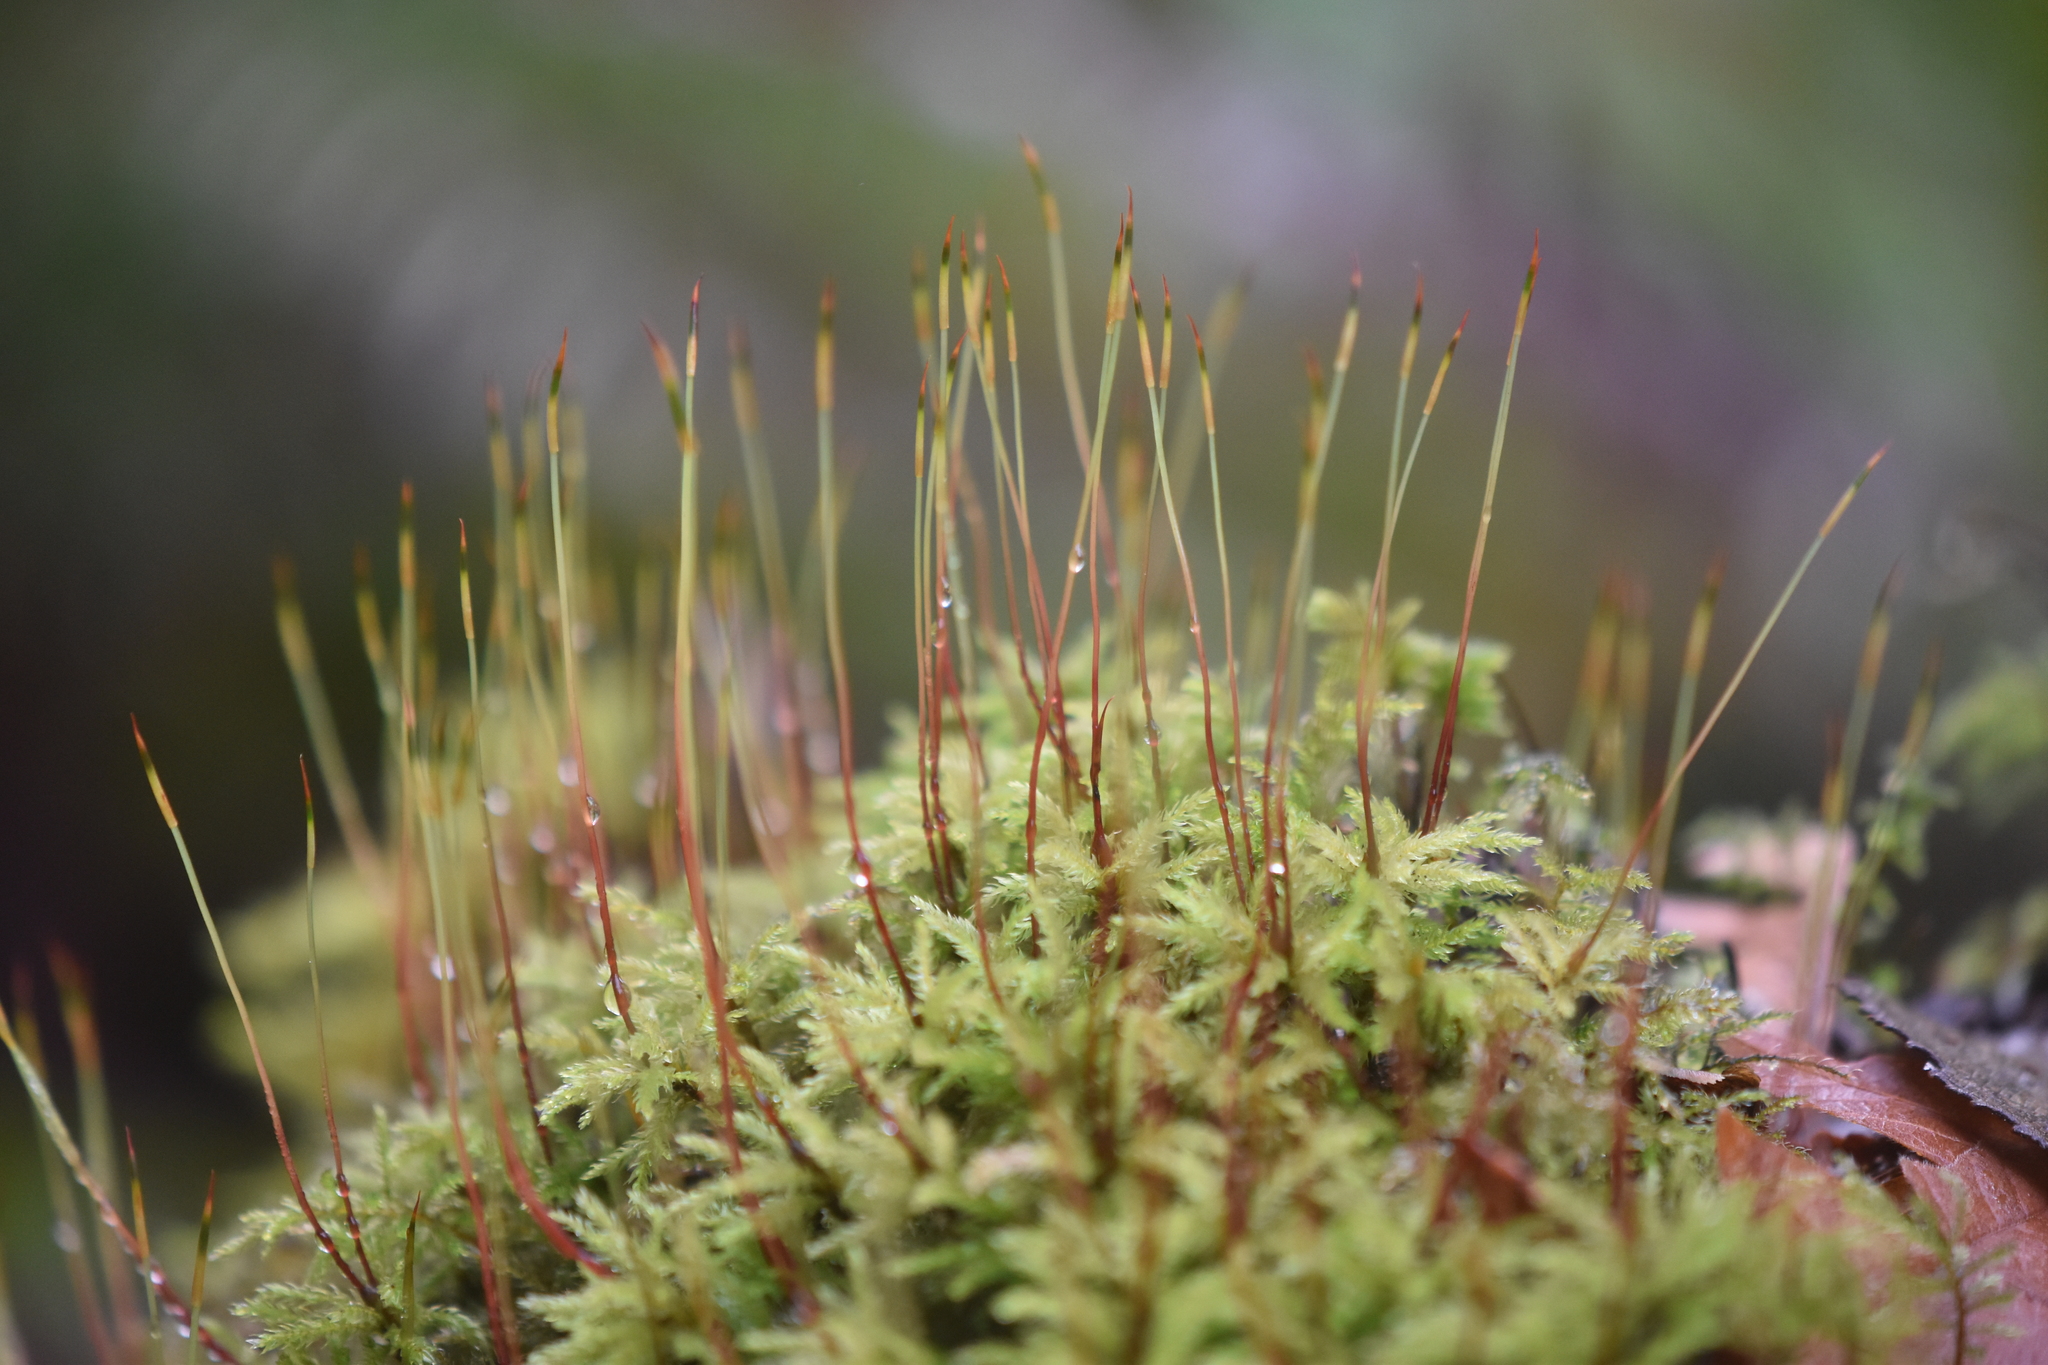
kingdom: Plantae
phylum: Bryophyta
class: Bryopsida
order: Bryales
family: Mniaceae
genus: Leucolepis
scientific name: Leucolepis acanthoneura
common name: Leucolepis umbrella moss
